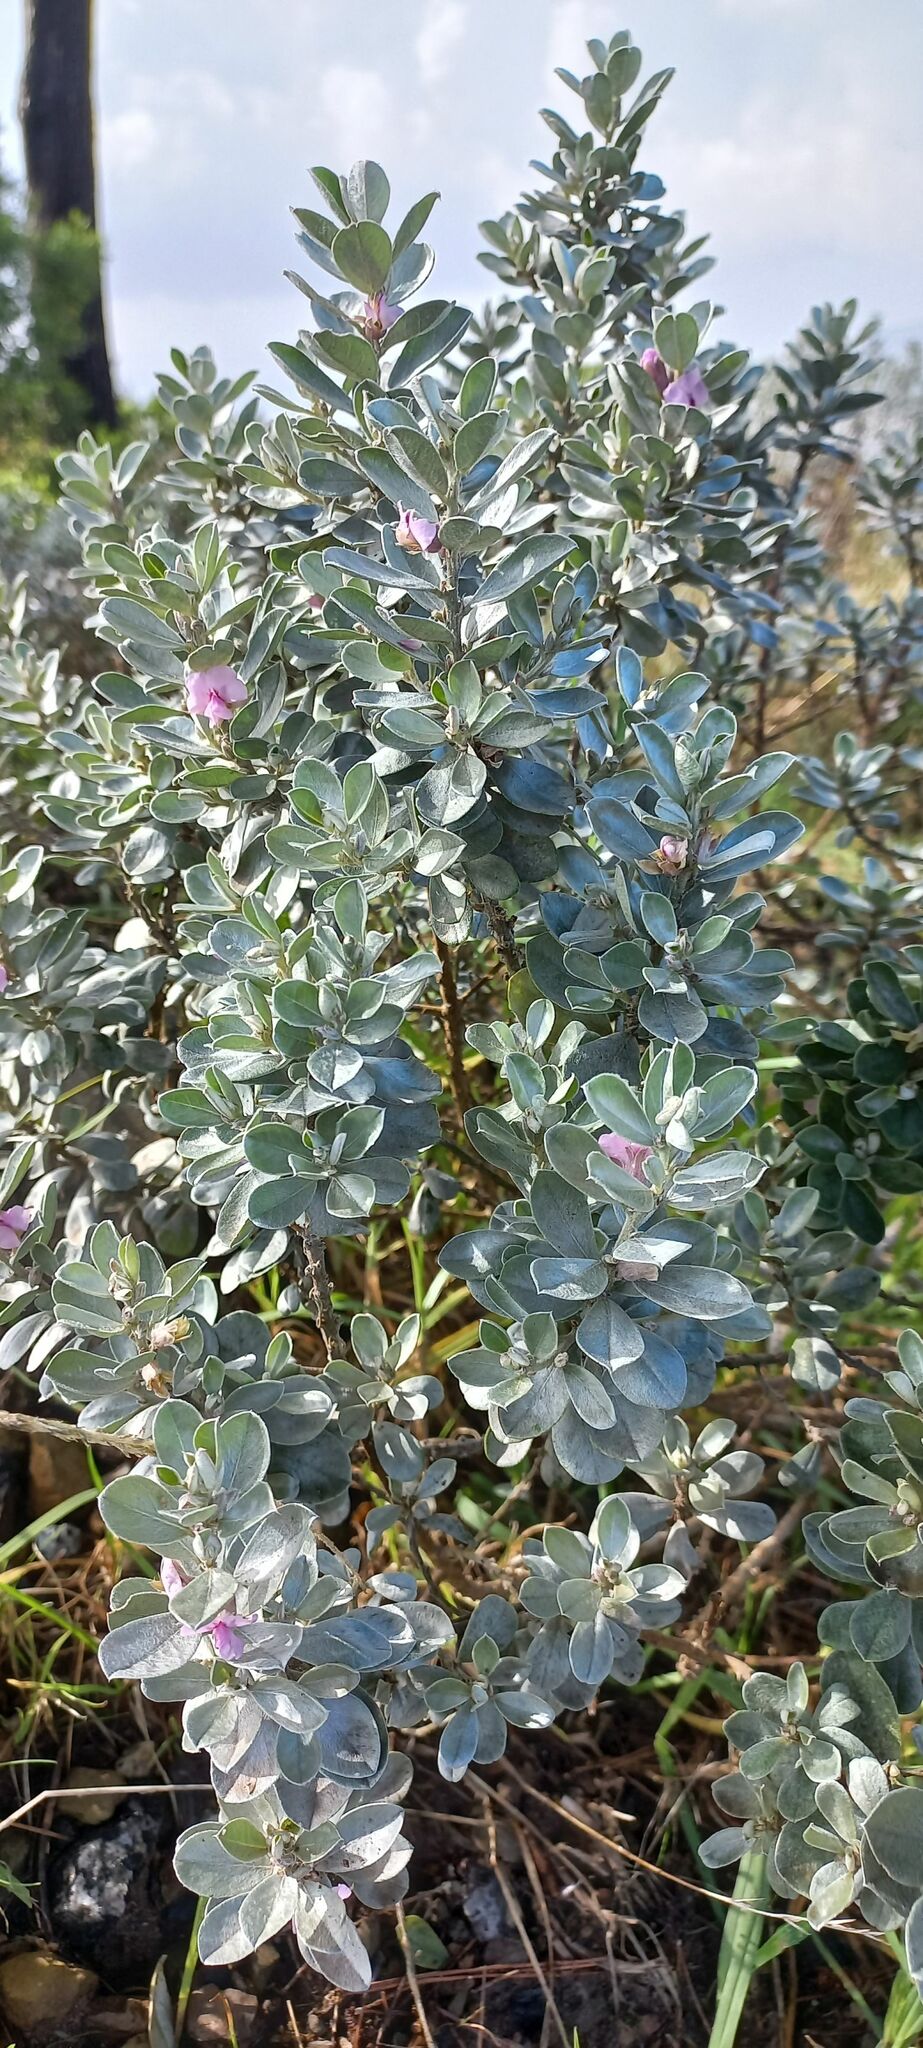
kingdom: Plantae
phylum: Tracheophyta
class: Magnoliopsida
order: Fabales
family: Fabaceae
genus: Podalyria
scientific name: Podalyria sericea
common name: Silver podalyria
